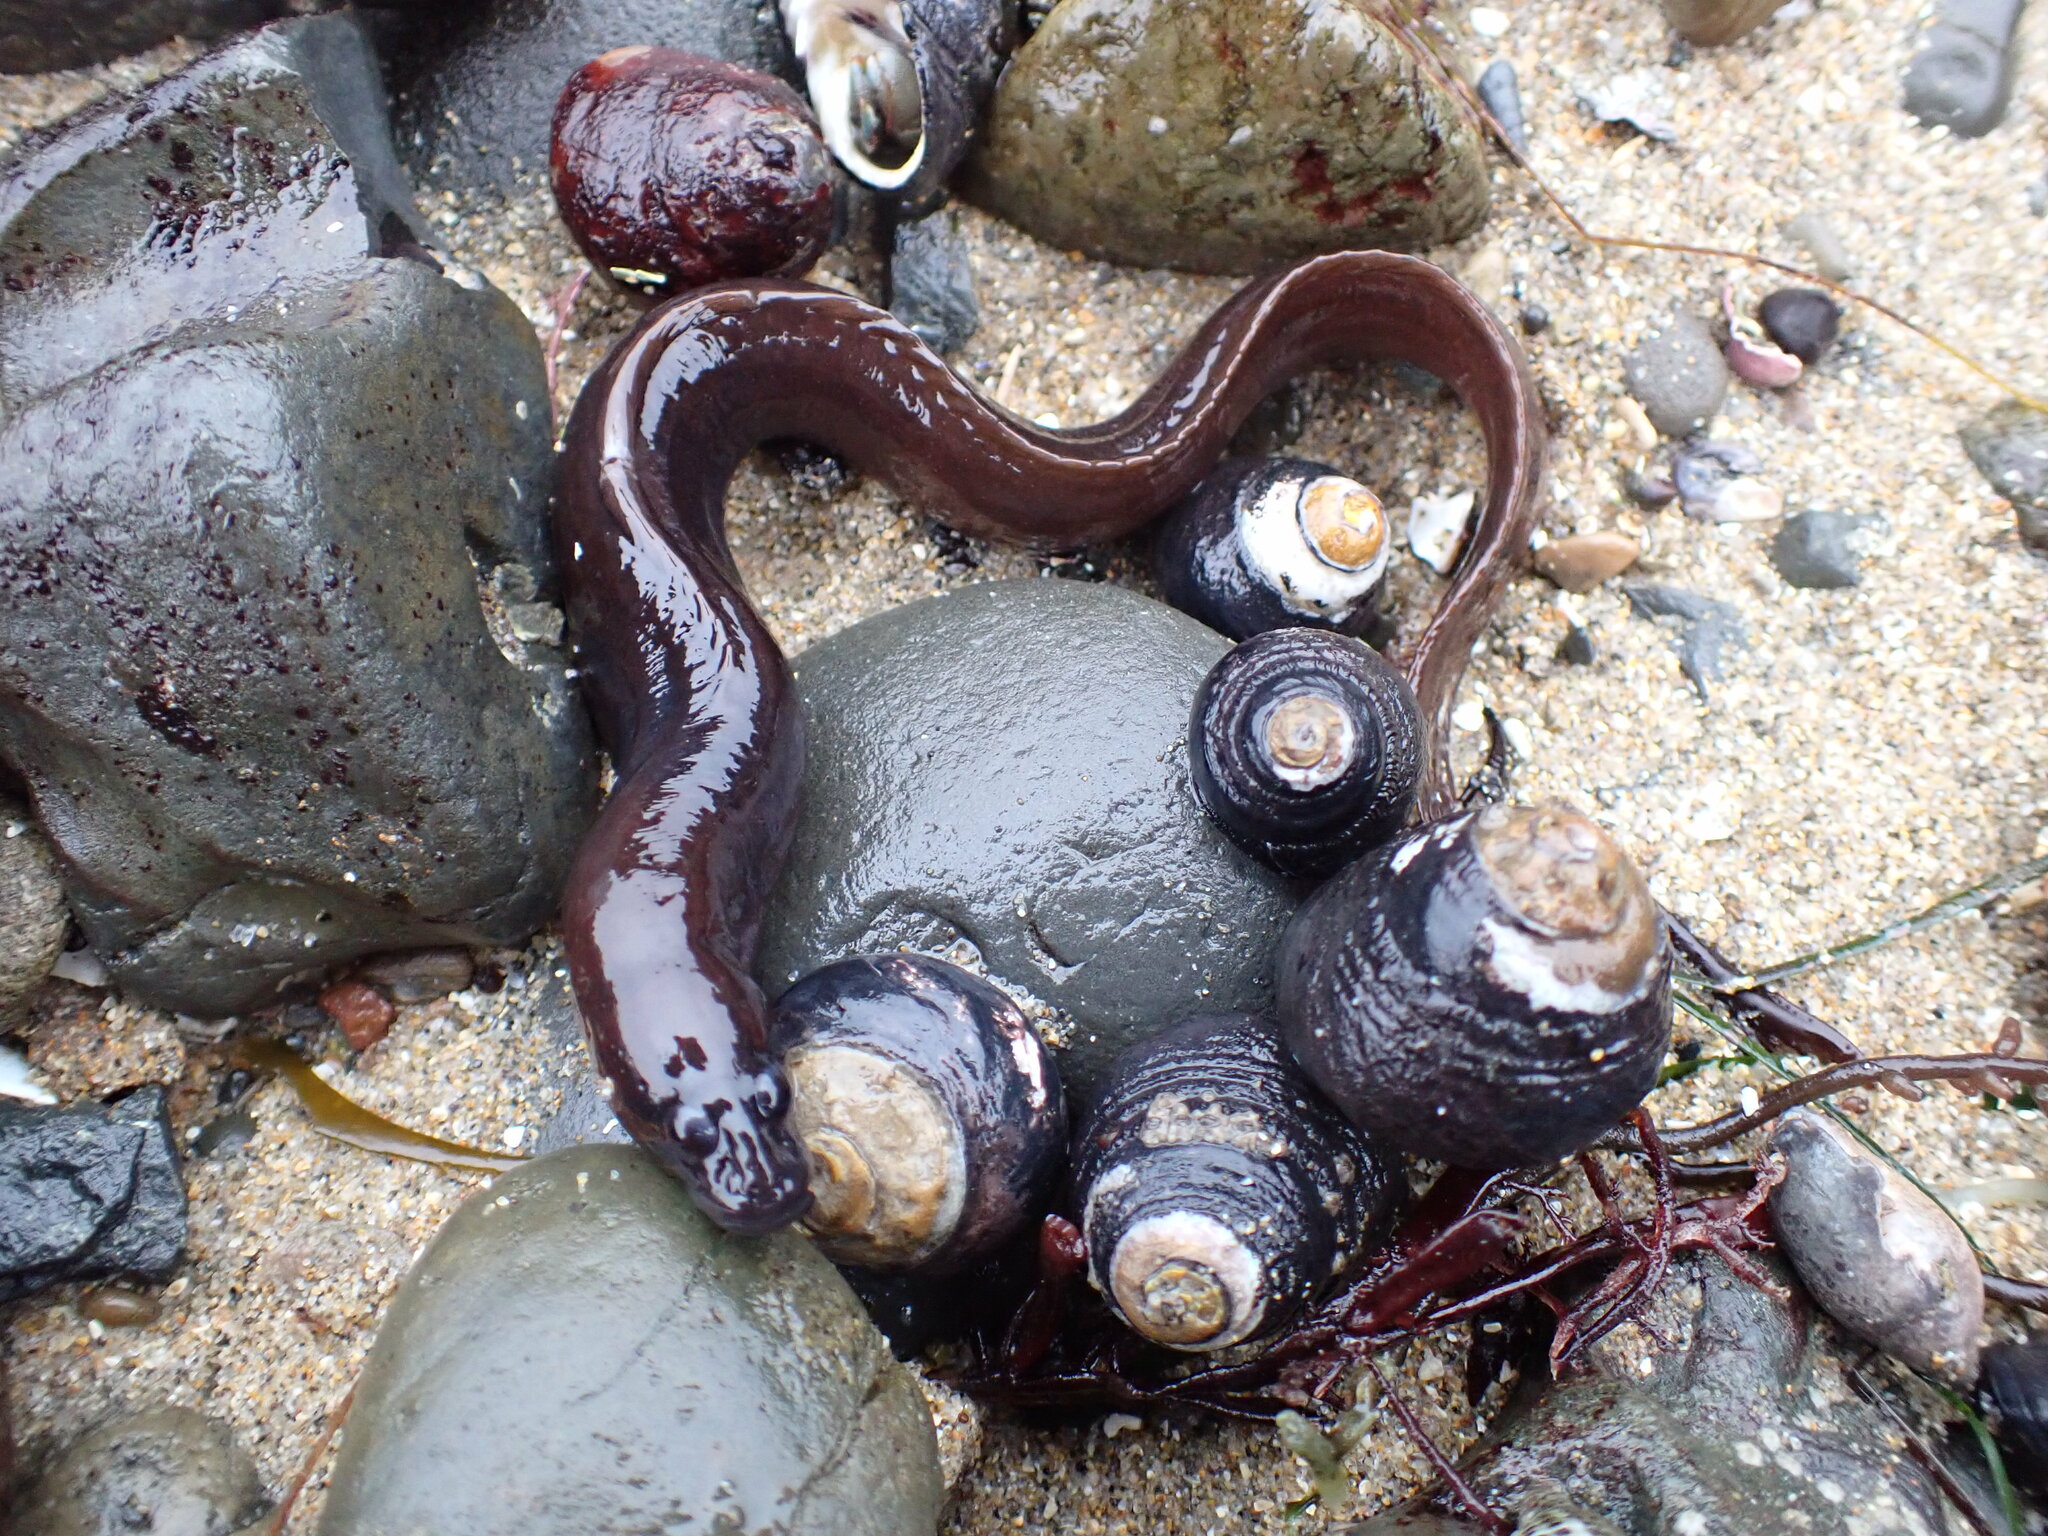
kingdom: Animalia
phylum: Chordata
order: Perciformes
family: Stichaeidae
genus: Xiphister
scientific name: Xiphister atropurpureus
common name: Black prickleback
